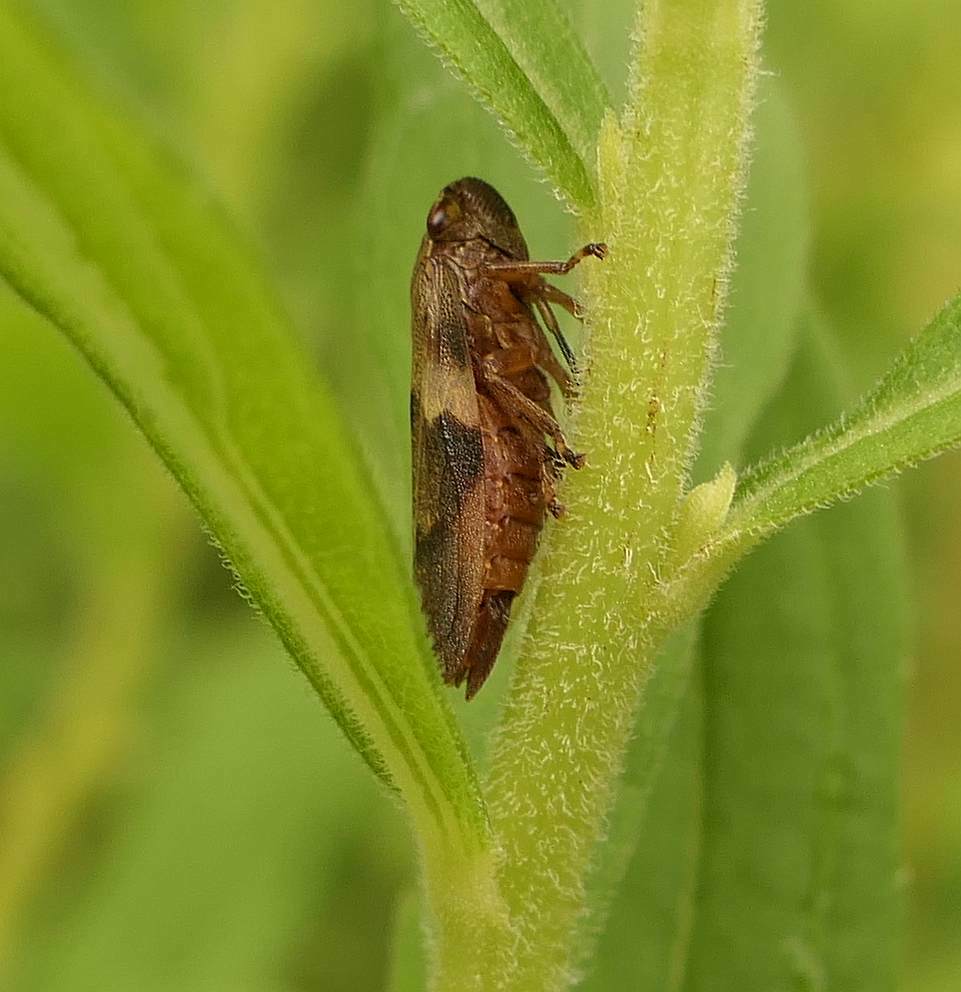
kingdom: Animalia
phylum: Arthropoda
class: Insecta
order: Hemiptera
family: Aphrophoridae
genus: Aphrophora
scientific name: Aphrophora alni
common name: European alder spittlebug
